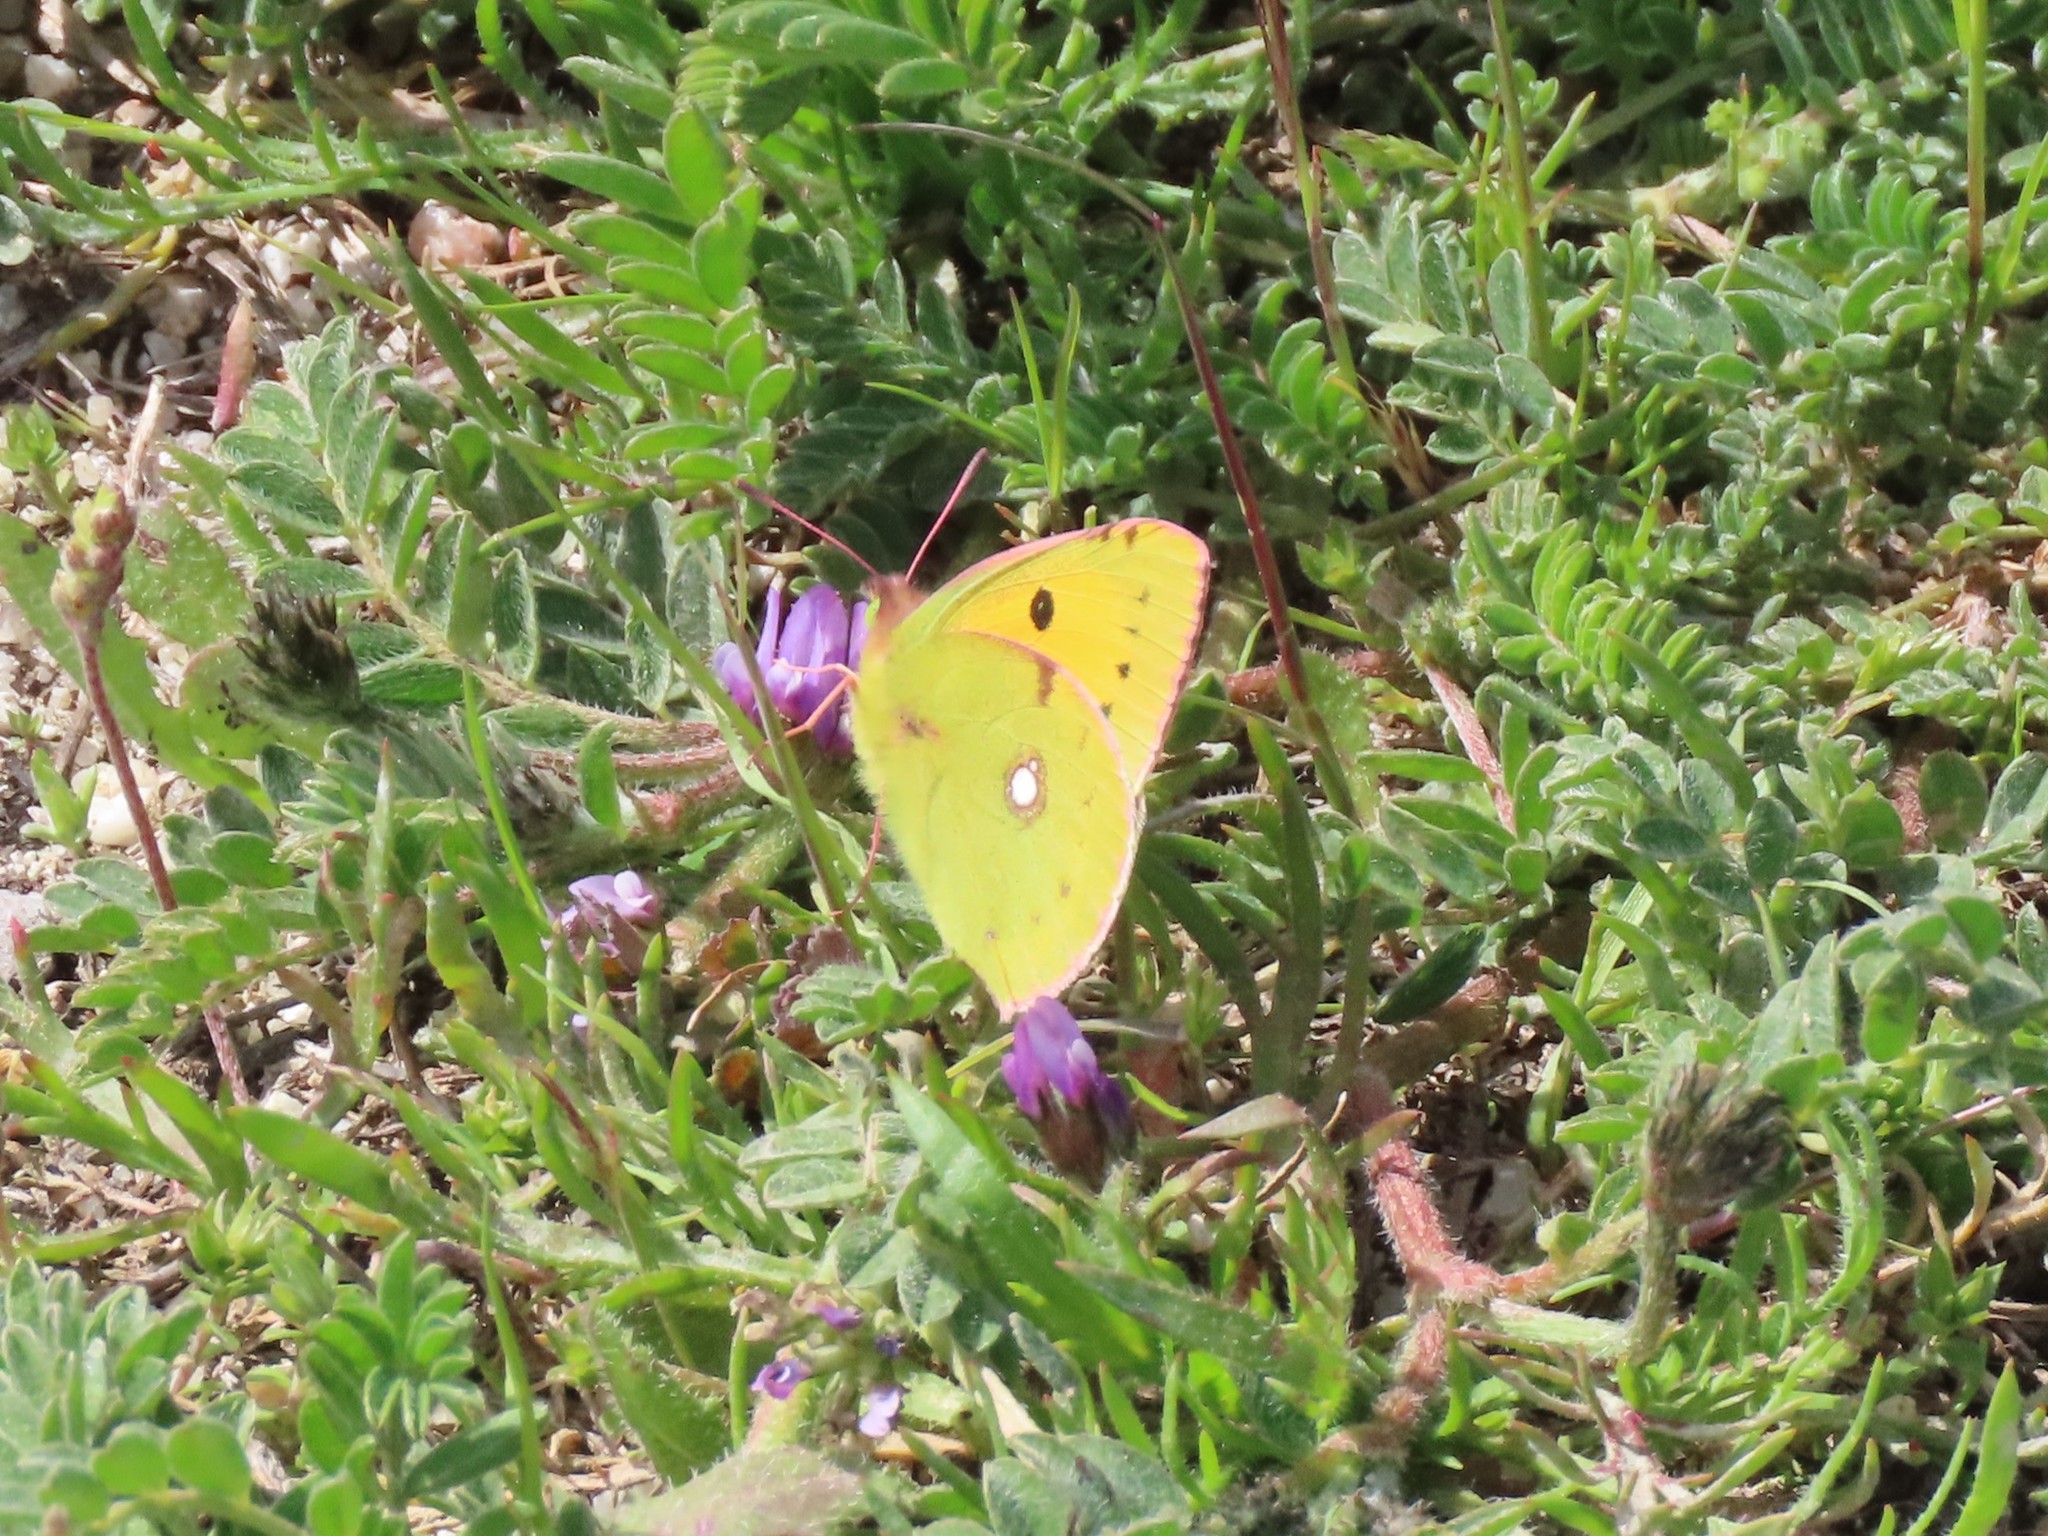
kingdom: Animalia
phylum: Arthropoda
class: Insecta
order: Lepidoptera
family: Pieridae
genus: Colias
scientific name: Colias croceus
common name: Clouded yellow
